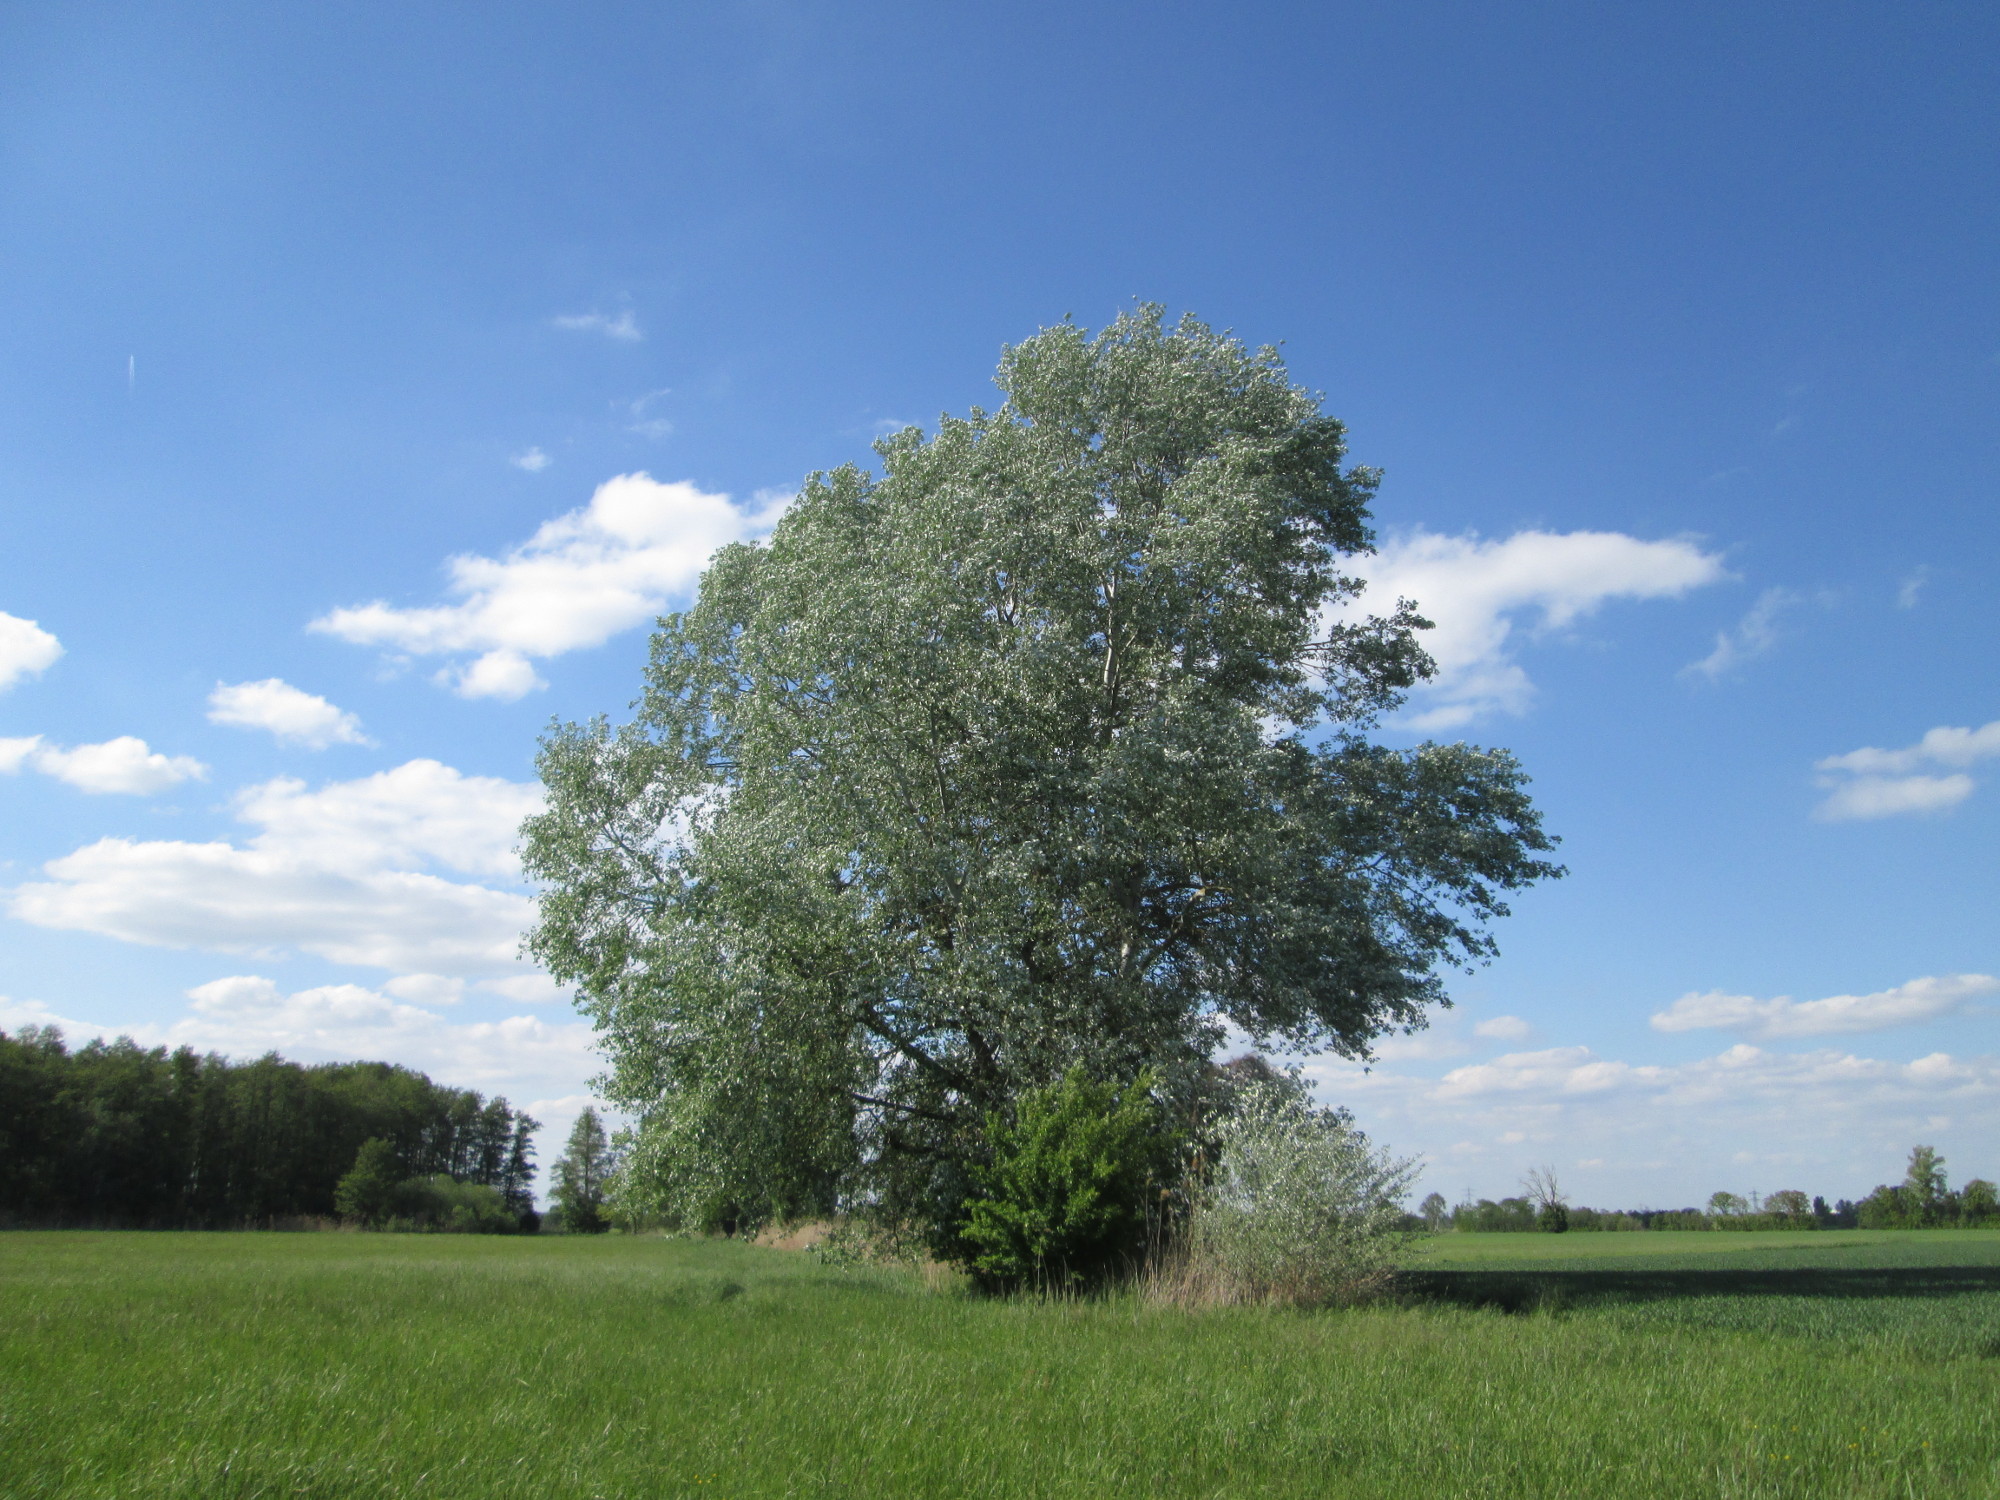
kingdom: Plantae
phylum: Tracheophyta
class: Magnoliopsida
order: Malpighiales
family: Salicaceae
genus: Populus
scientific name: Populus alba
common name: White poplar
